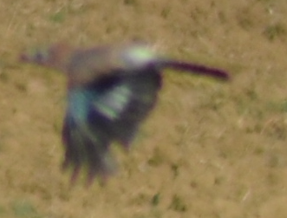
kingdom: Animalia
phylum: Chordata
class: Aves
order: Passeriformes
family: Corvidae
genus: Garrulus
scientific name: Garrulus glandarius
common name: Eurasian jay
